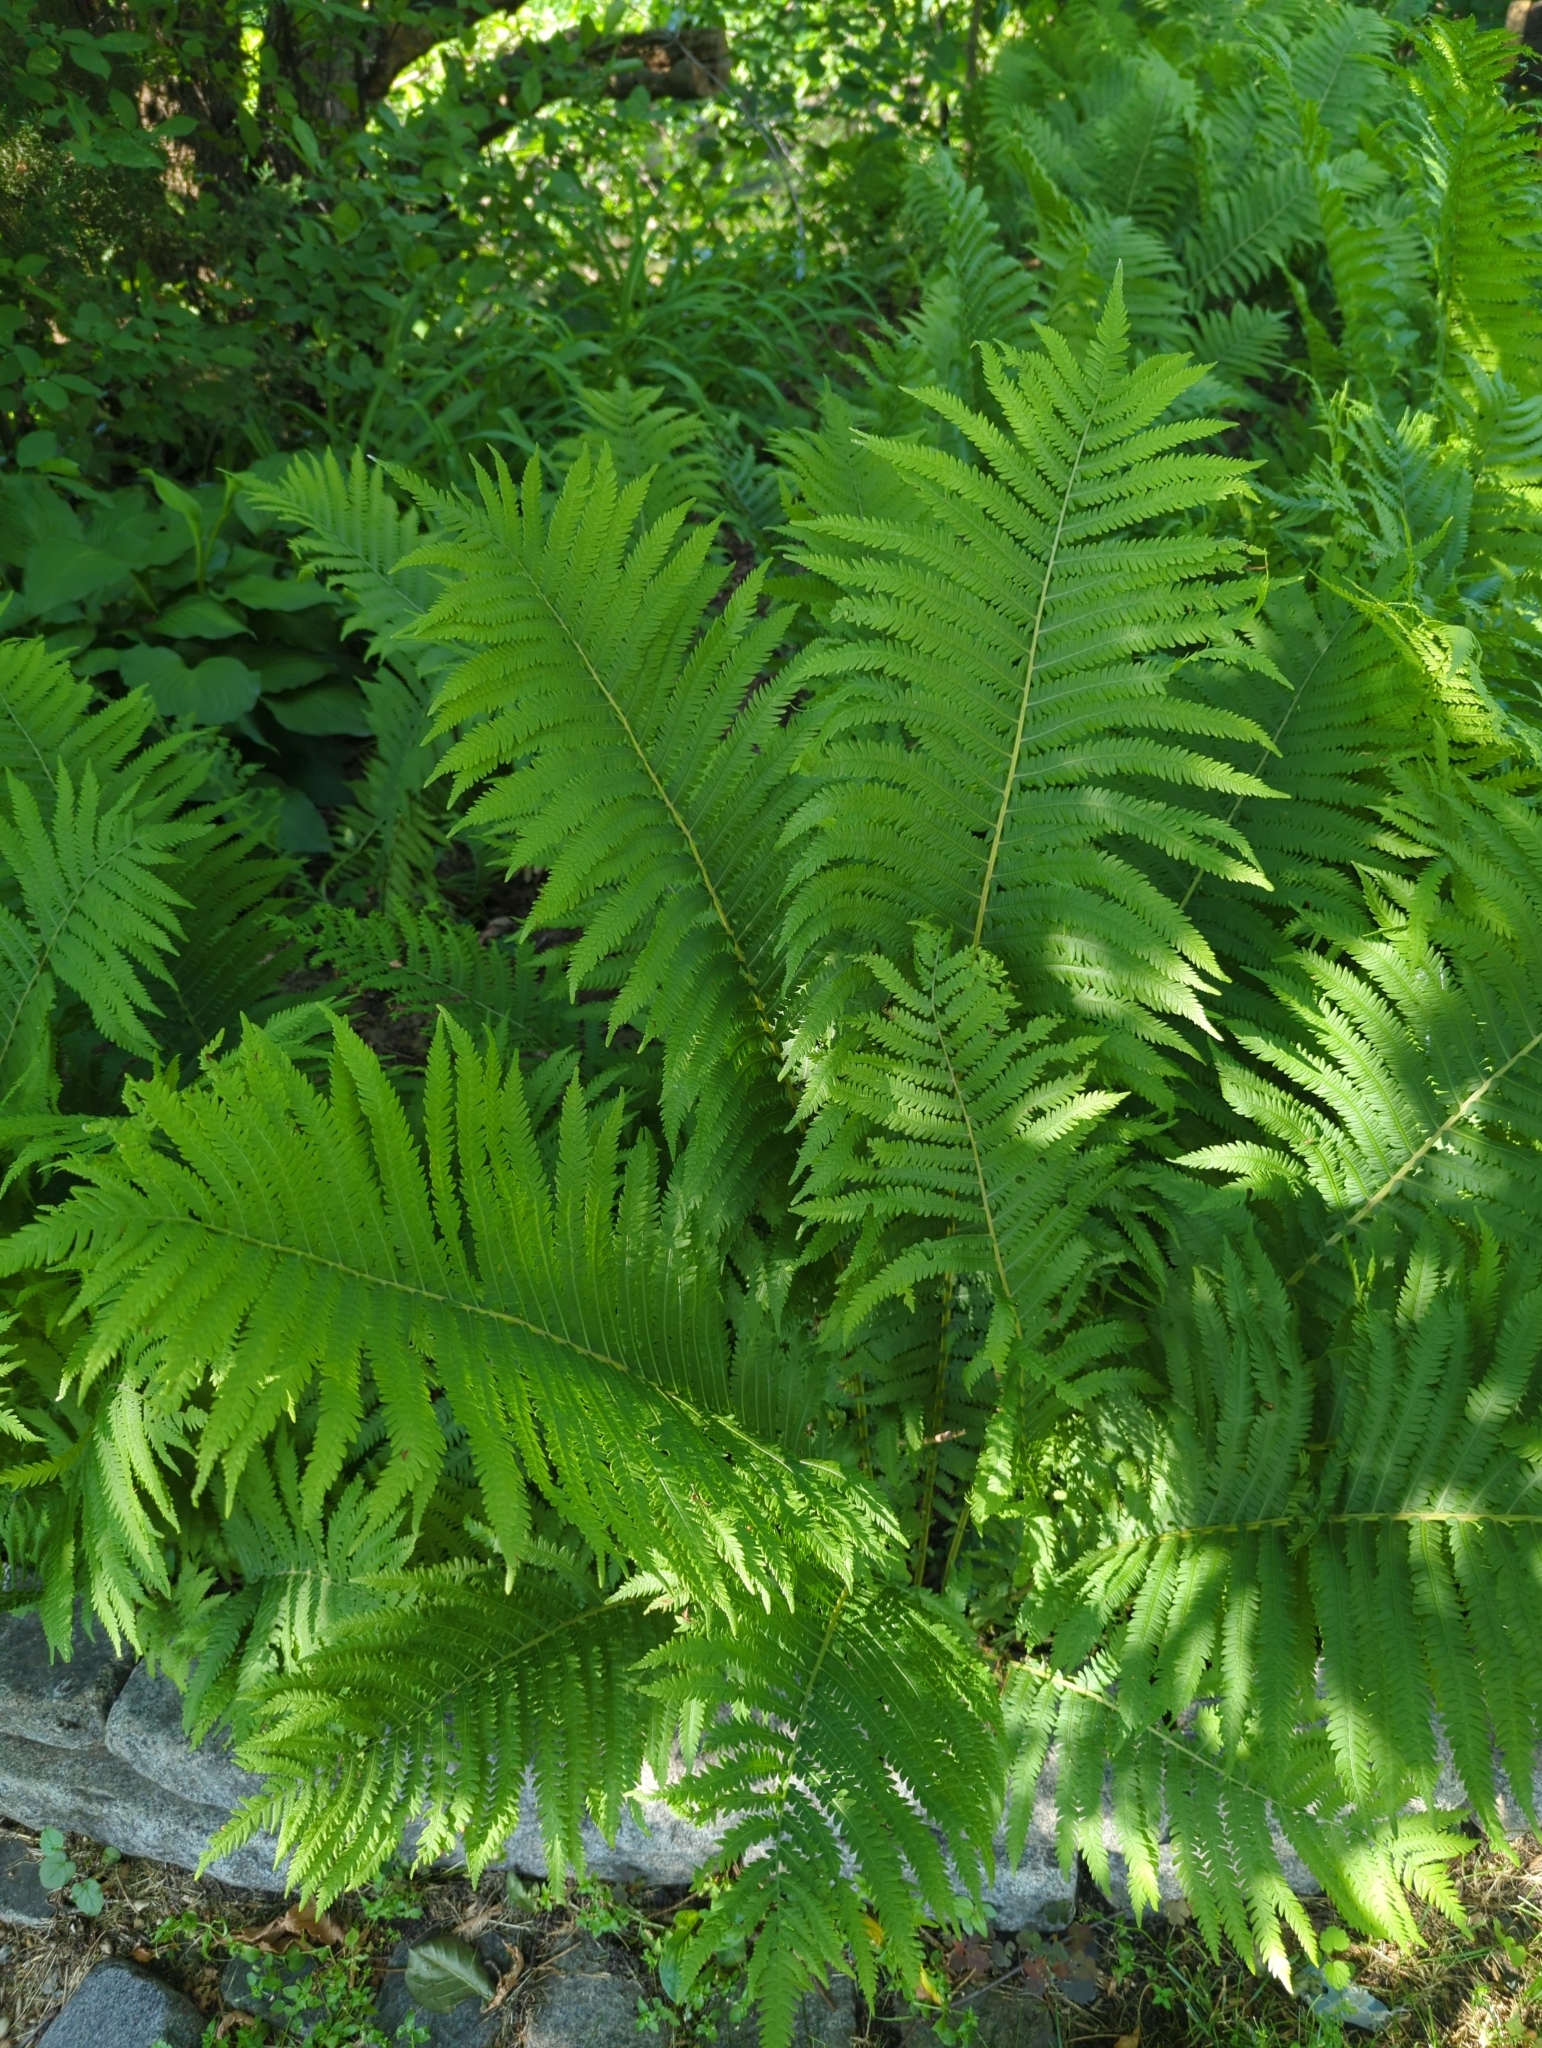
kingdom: Plantae
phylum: Tracheophyta
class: Polypodiopsida
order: Polypodiales
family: Onocleaceae
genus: Matteuccia
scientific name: Matteuccia struthiopteris
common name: Ostrich fern
